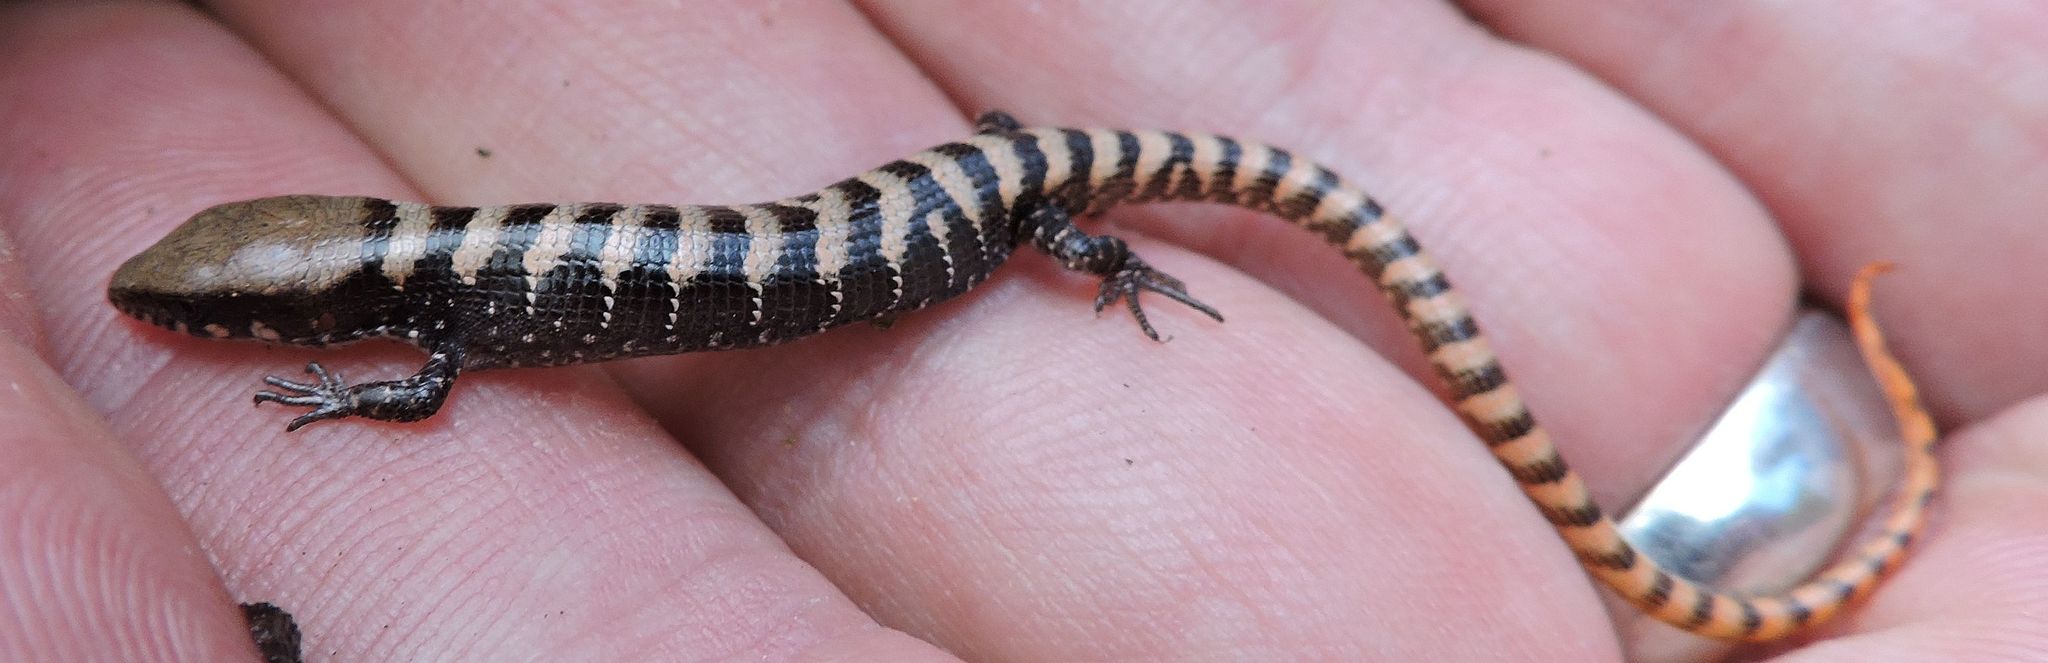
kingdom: Animalia
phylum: Chordata
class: Squamata
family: Anguidae
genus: Elgaria
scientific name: Elgaria kingii
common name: Madrean alligator lizard
